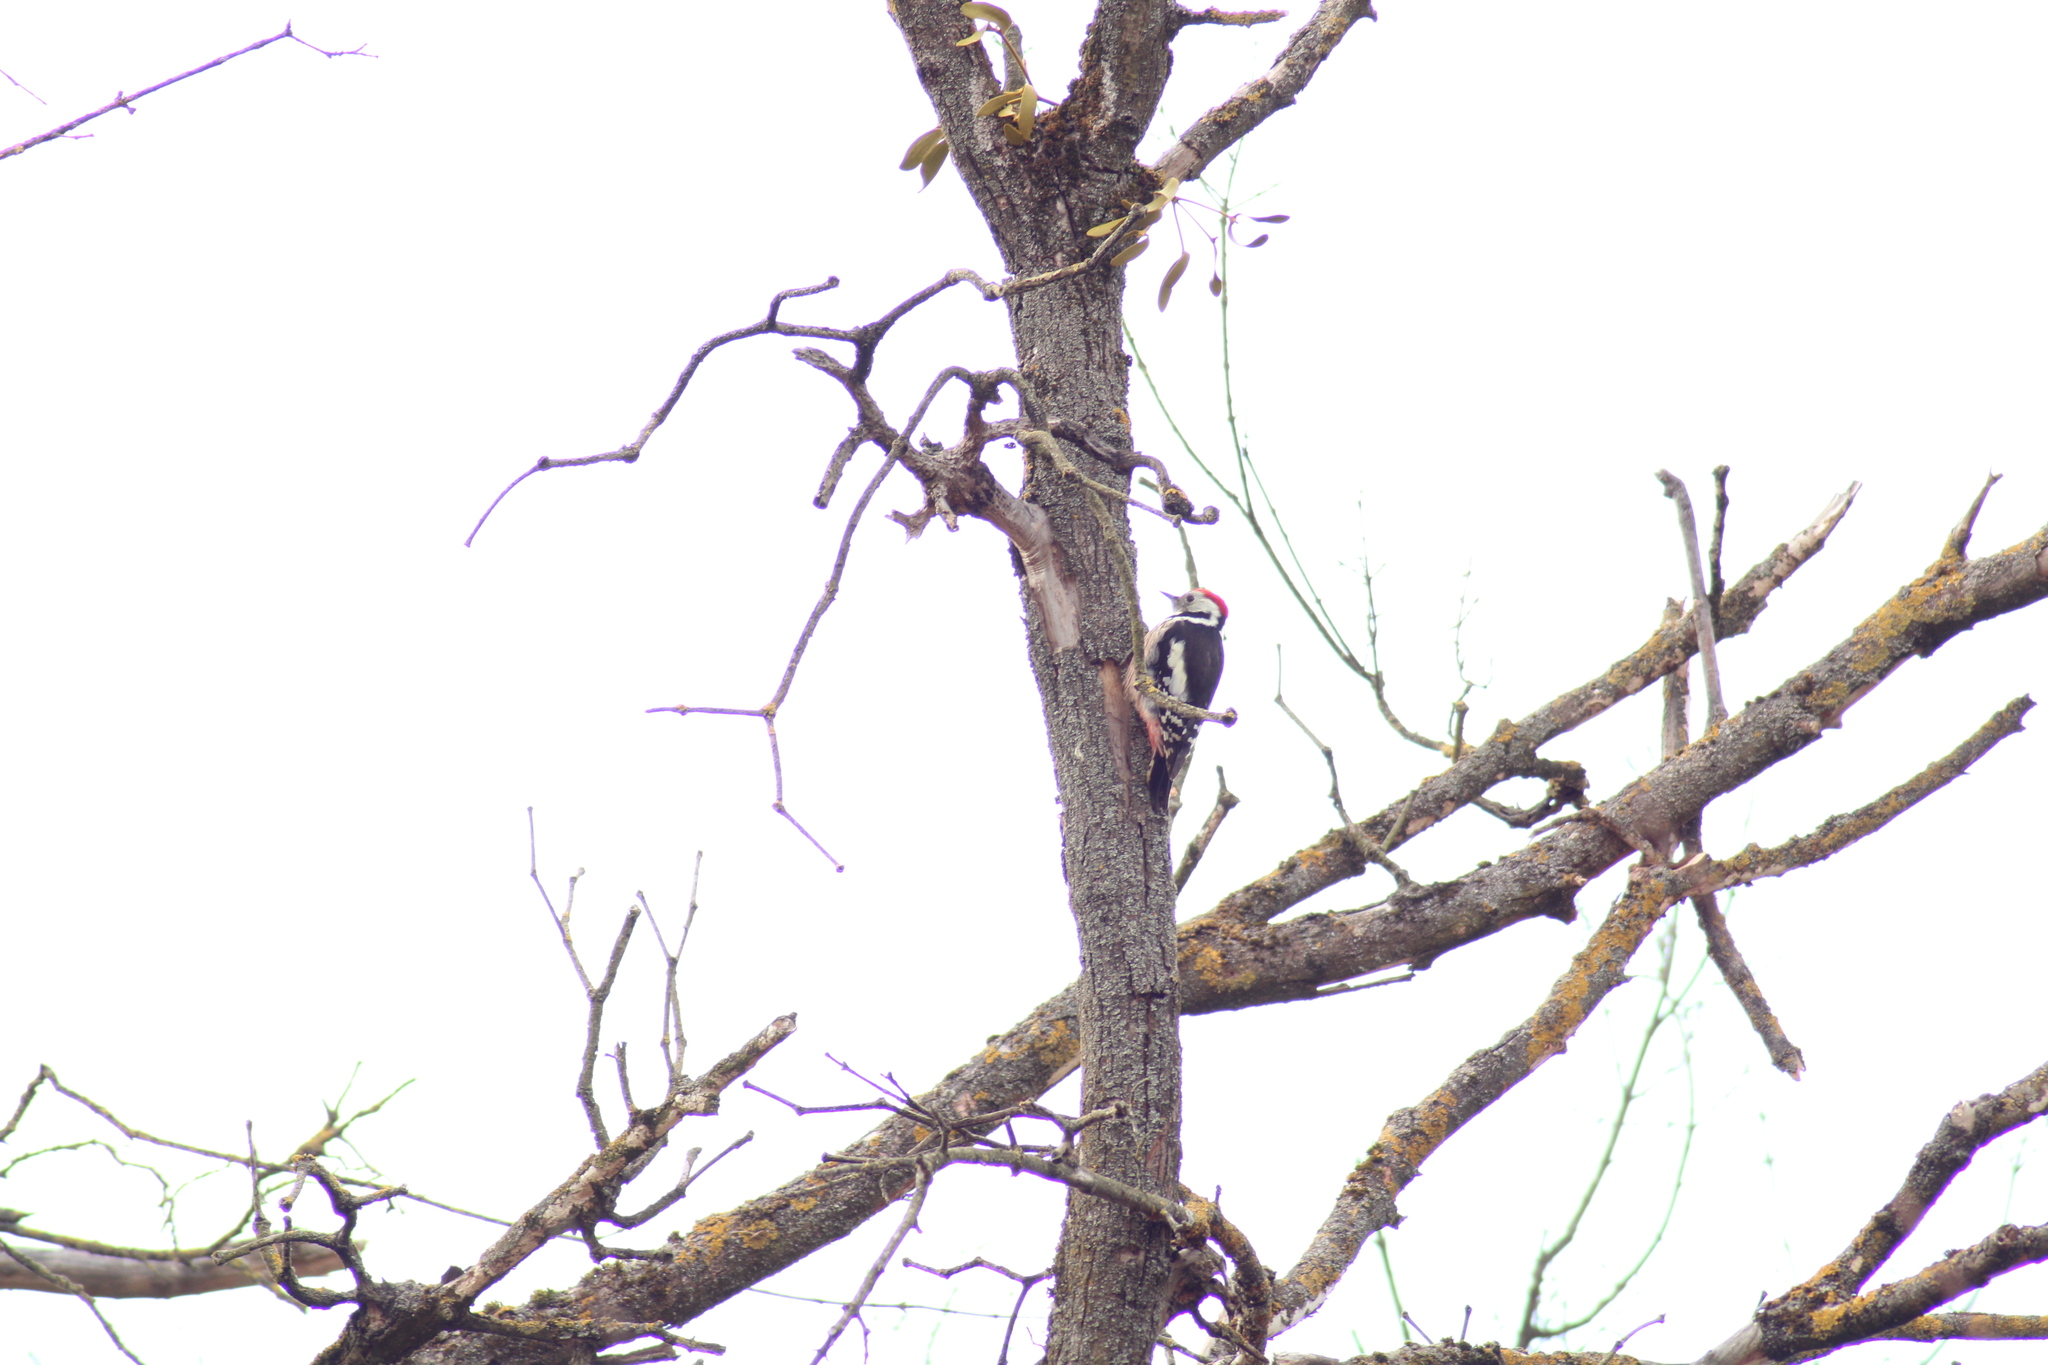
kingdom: Animalia
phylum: Chordata
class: Aves
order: Piciformes
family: Picidae
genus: Dendrocoptes
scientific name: Dendrocoptes medius
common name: Middle spotted woodpecker
